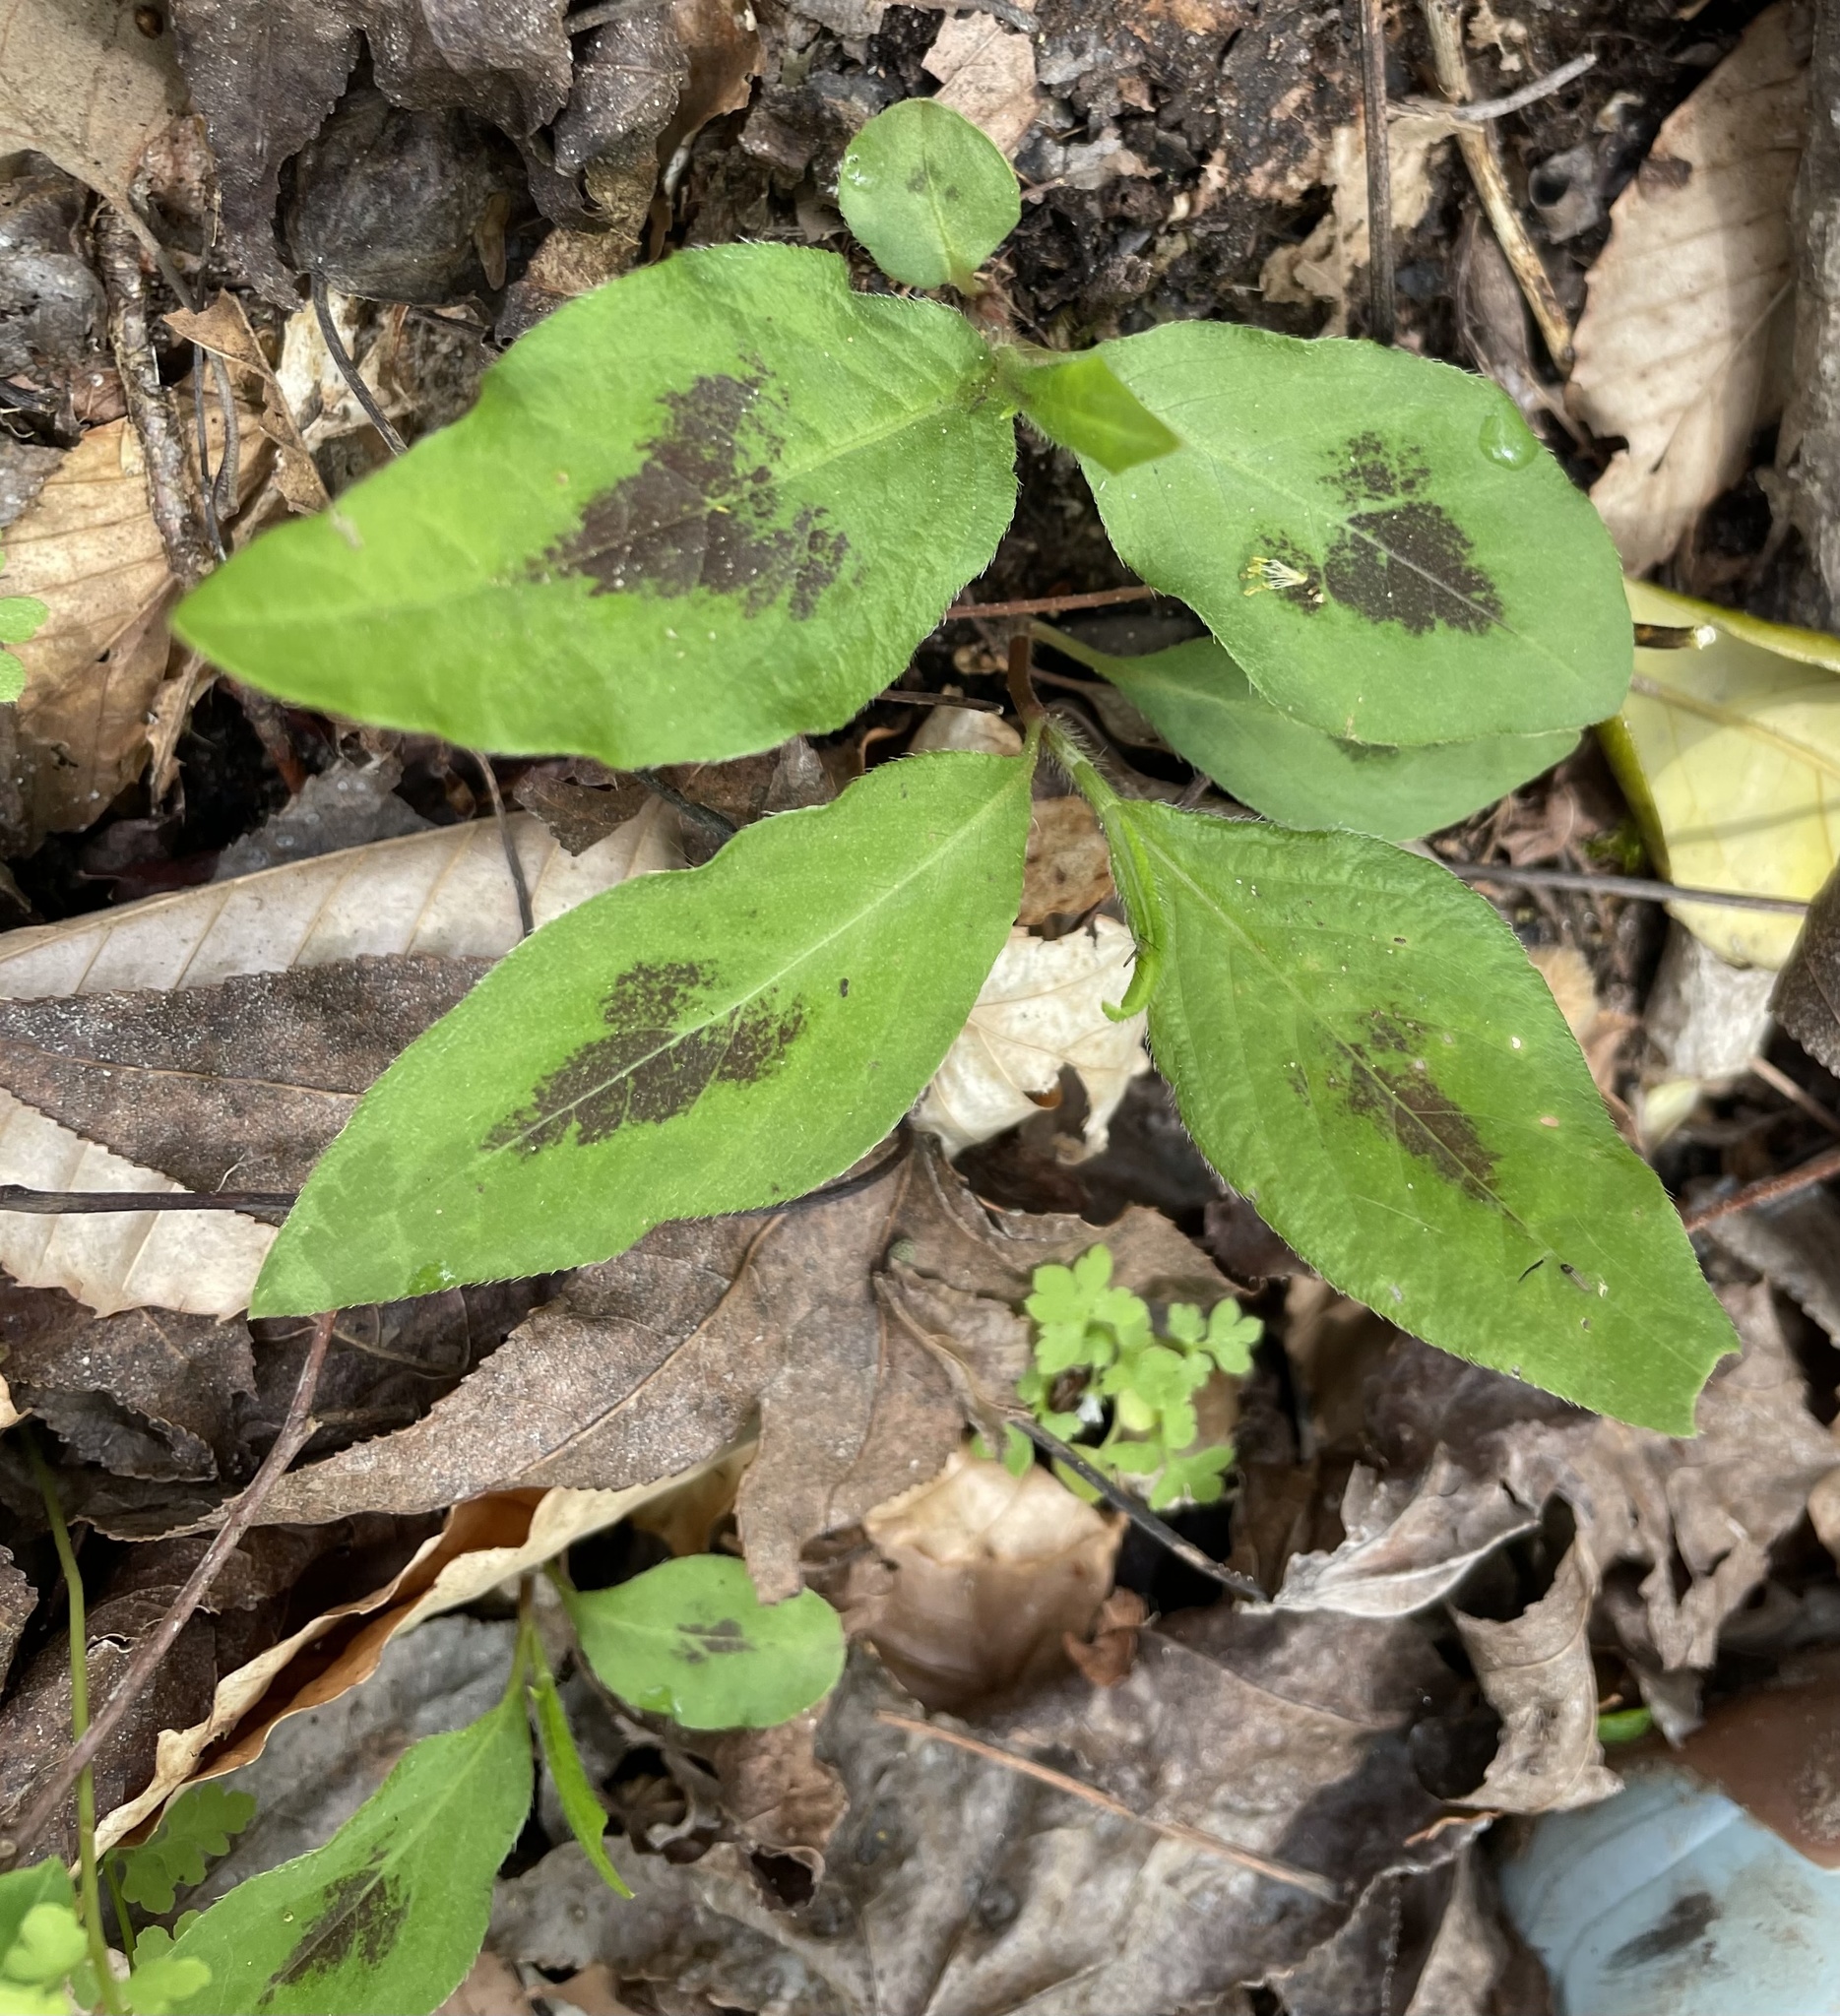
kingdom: Plantae
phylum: Tracheophyta
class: Magnoliopsida
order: Caryophyllales
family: Polygonaceae
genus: Persicaria
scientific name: Persicaria virginiana
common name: Jumpseed
